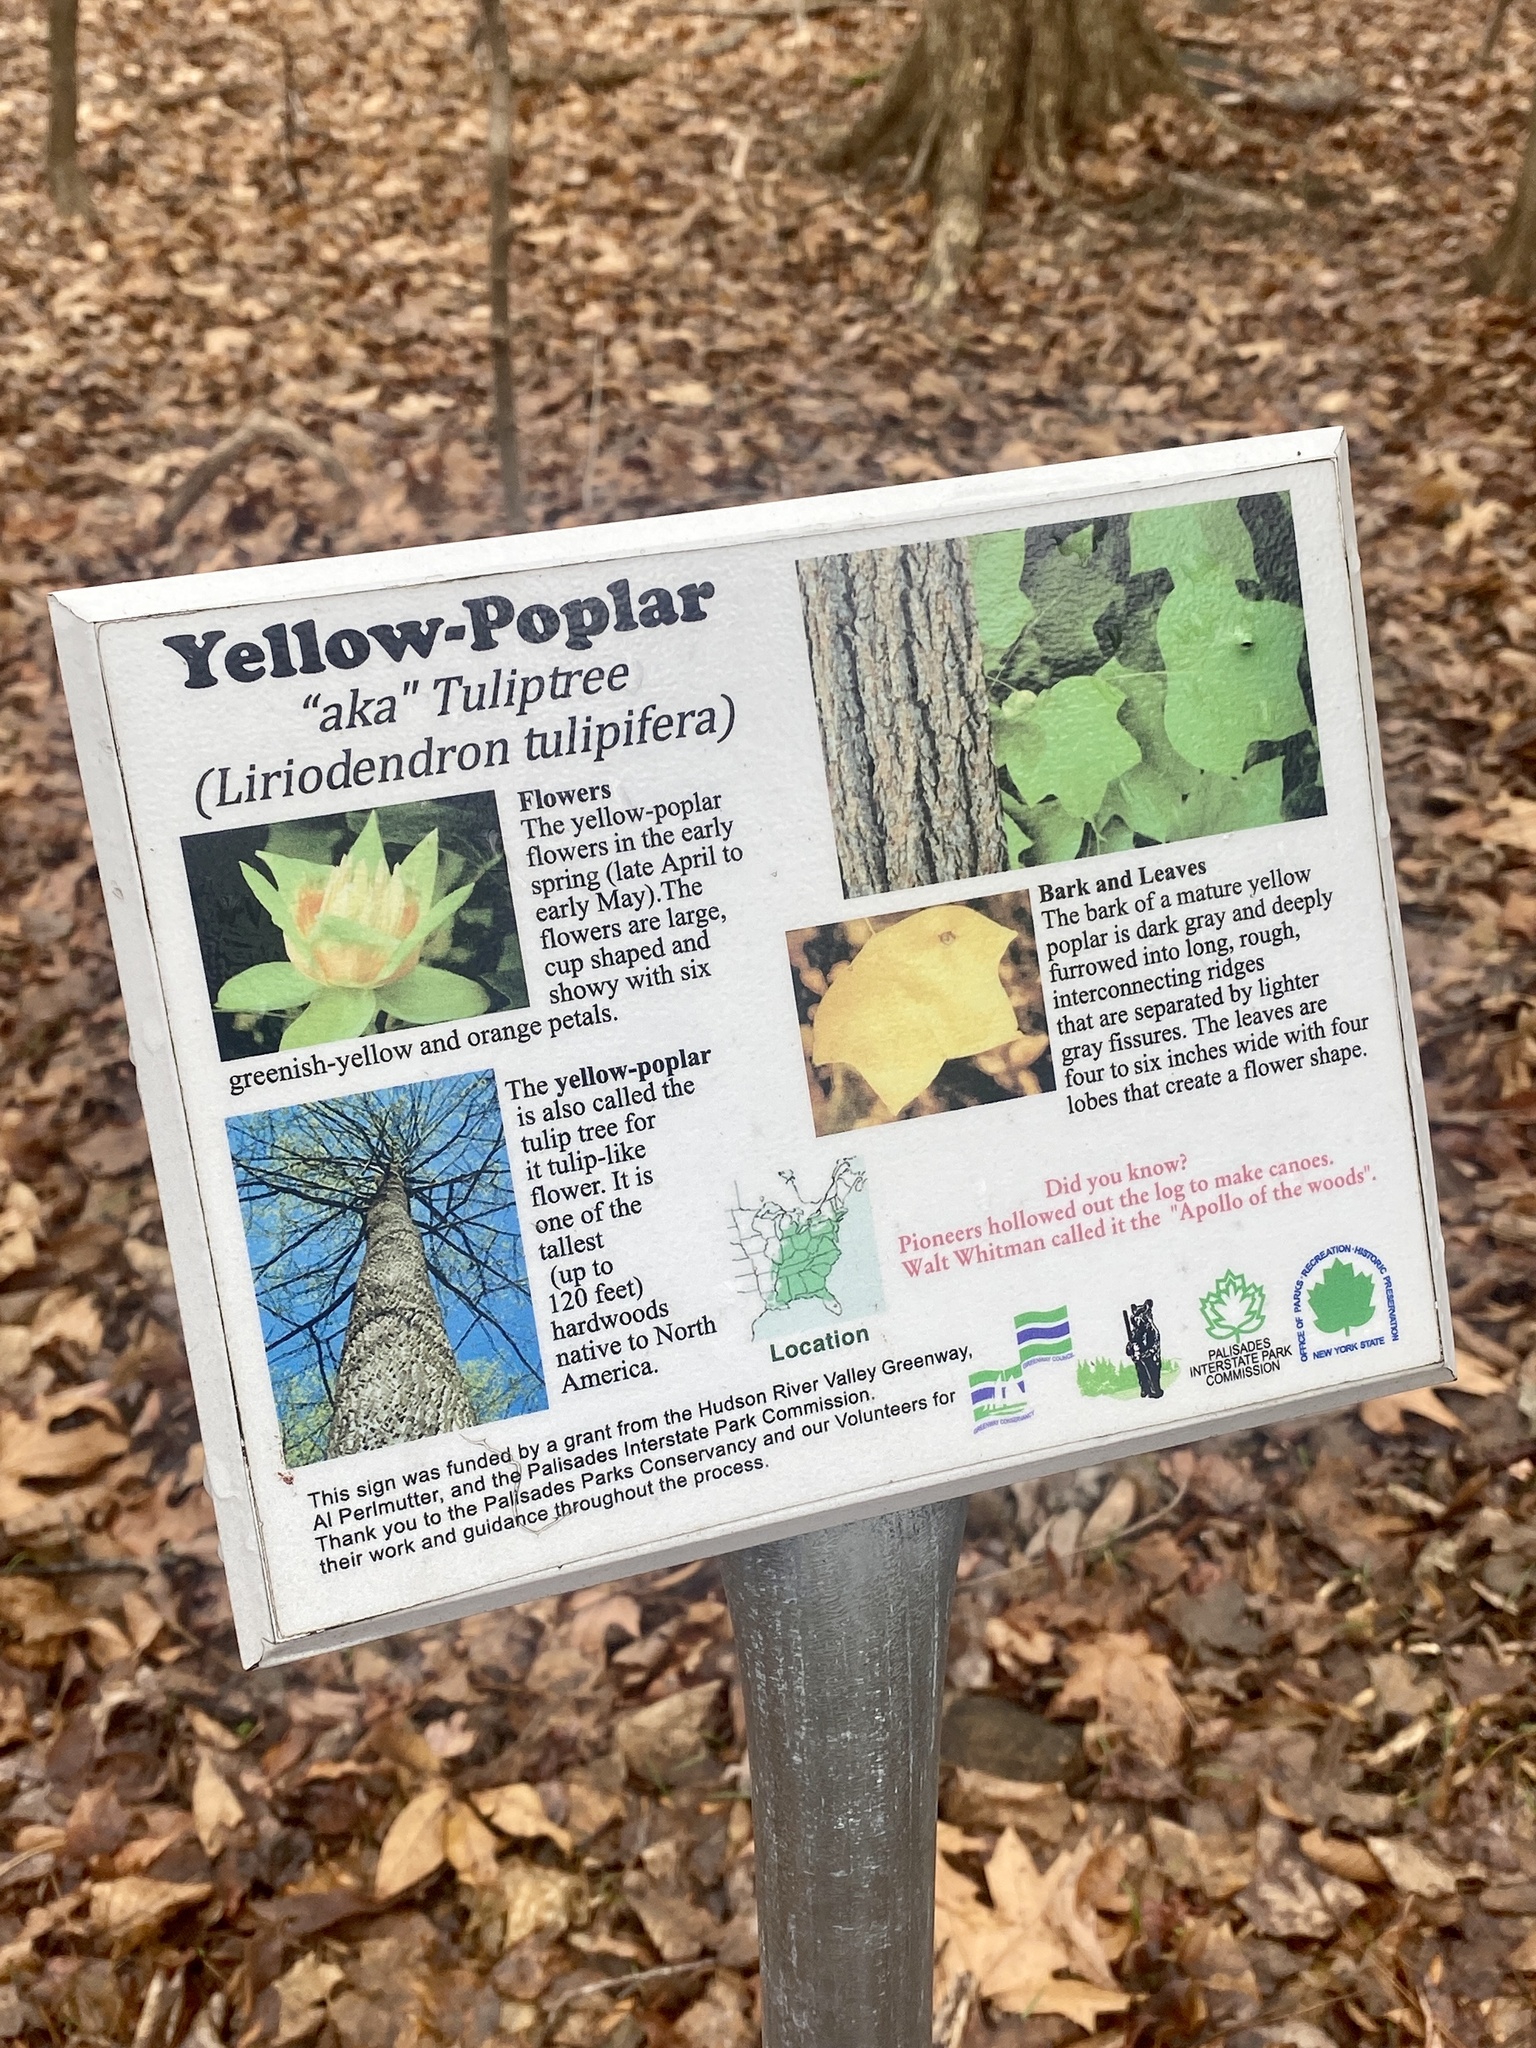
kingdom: Plantae
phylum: Tracheophyta
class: Magnoliopsida
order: Magnoliales
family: Magnoliaceae
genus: Liriodendron
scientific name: Liriodendron tulipifera
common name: Tulip tree
